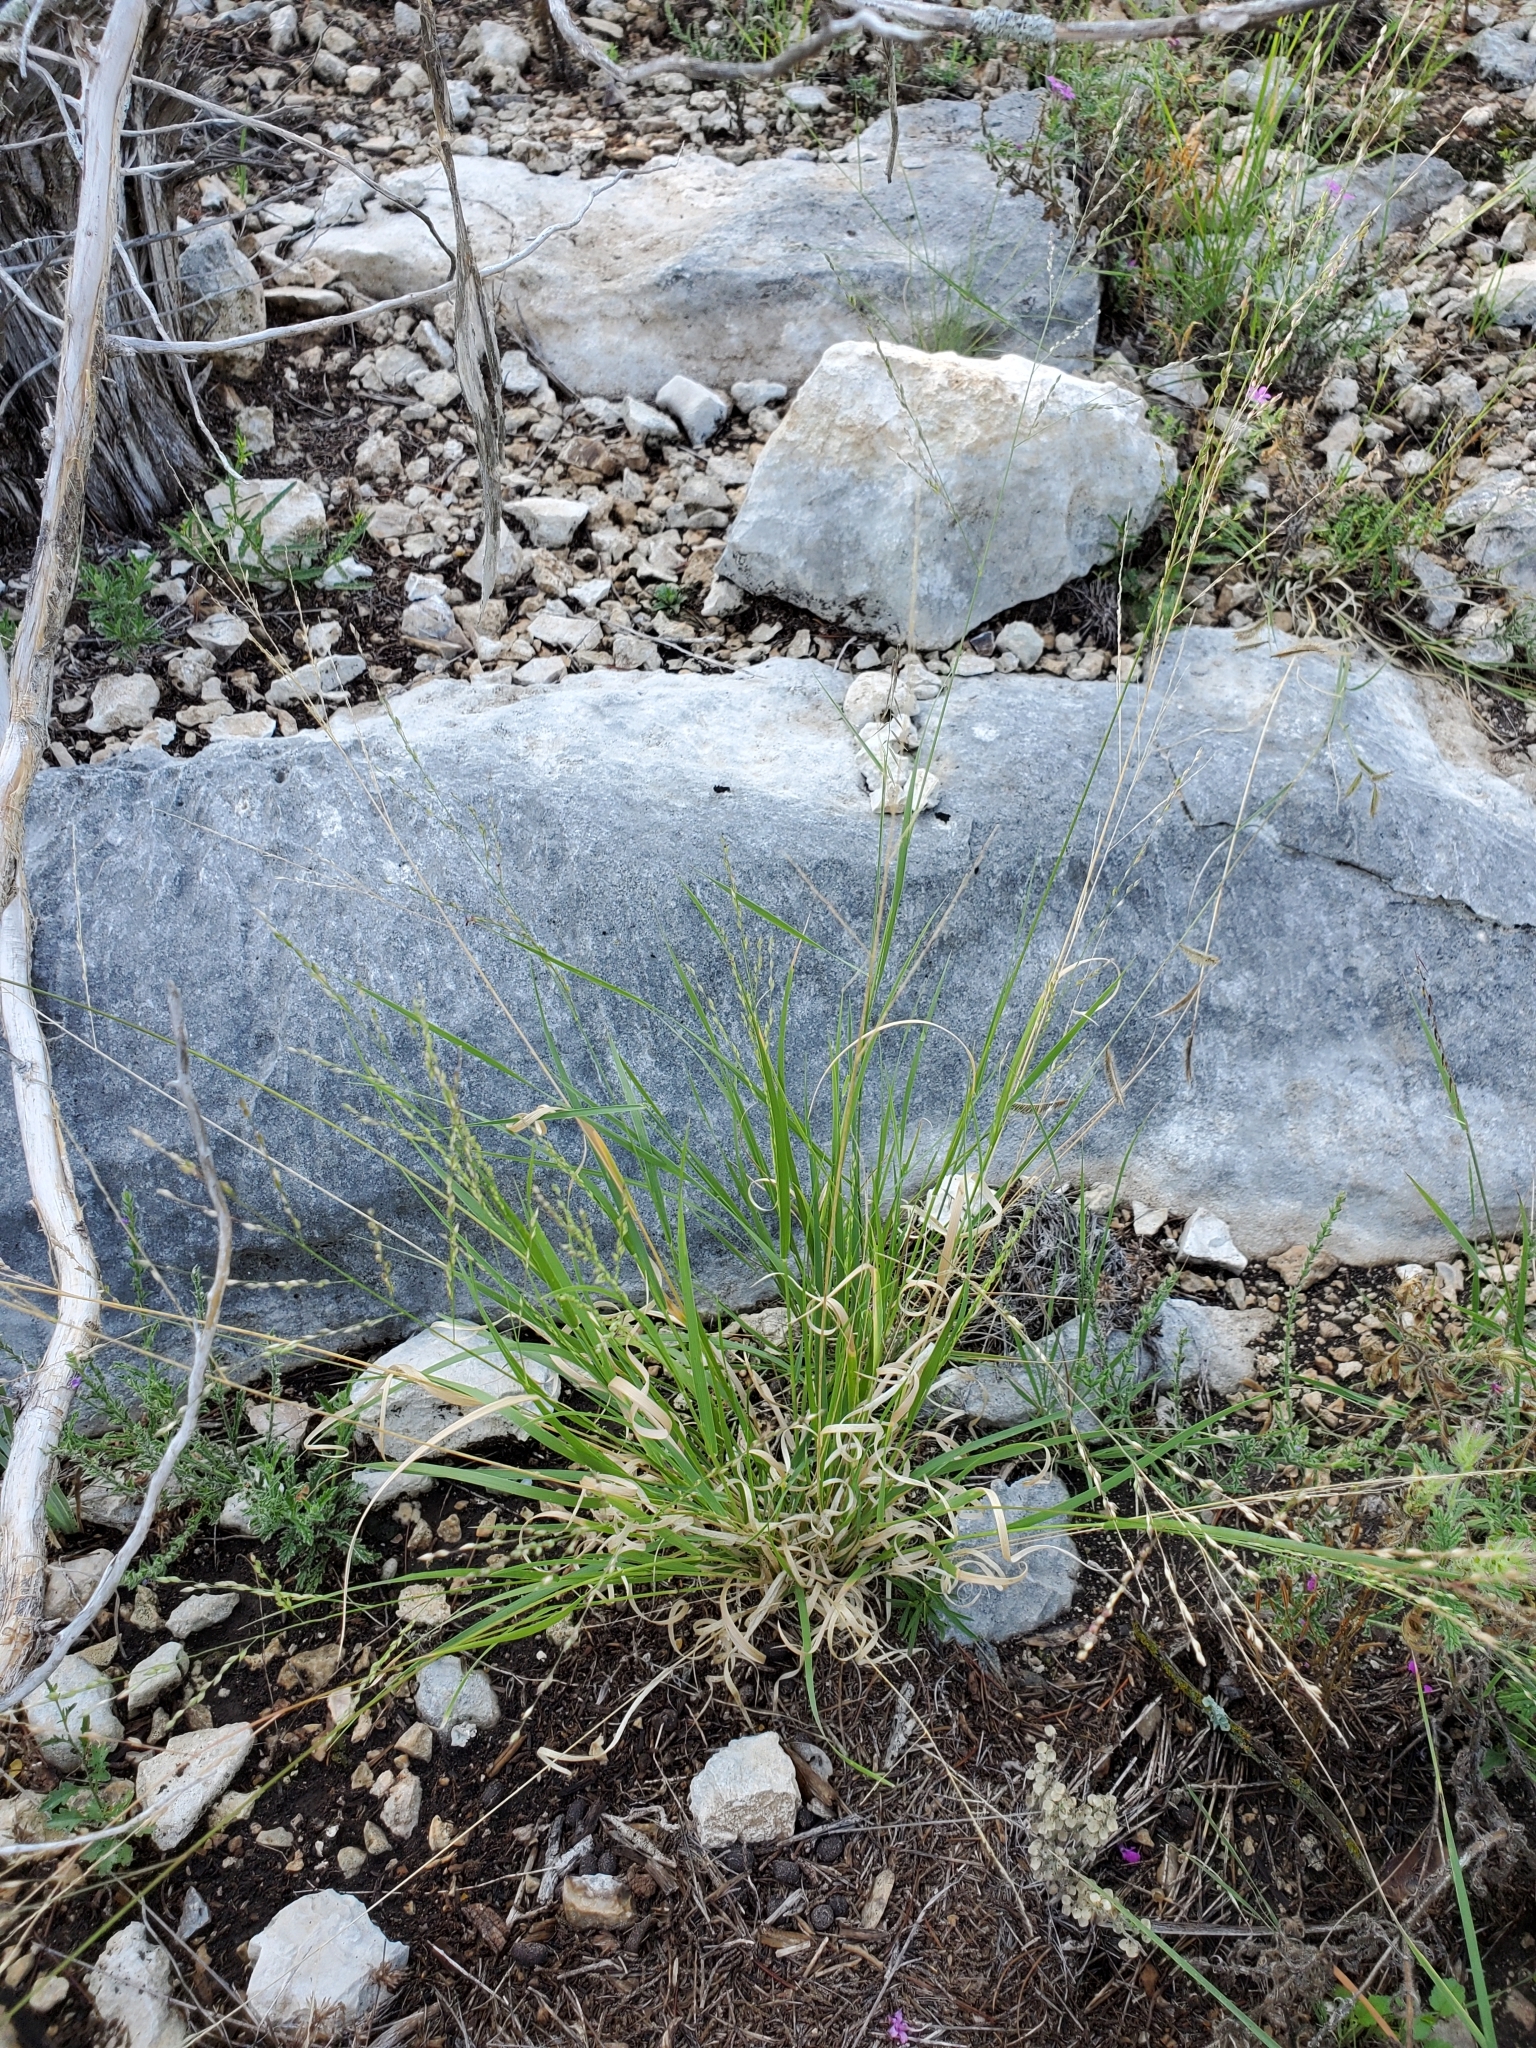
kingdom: Plantae
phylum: Tracheophyta
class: Liliopsida
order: Poales
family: Poaceae
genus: Panicum
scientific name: Panicum hallii
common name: Hall's witchgrass
